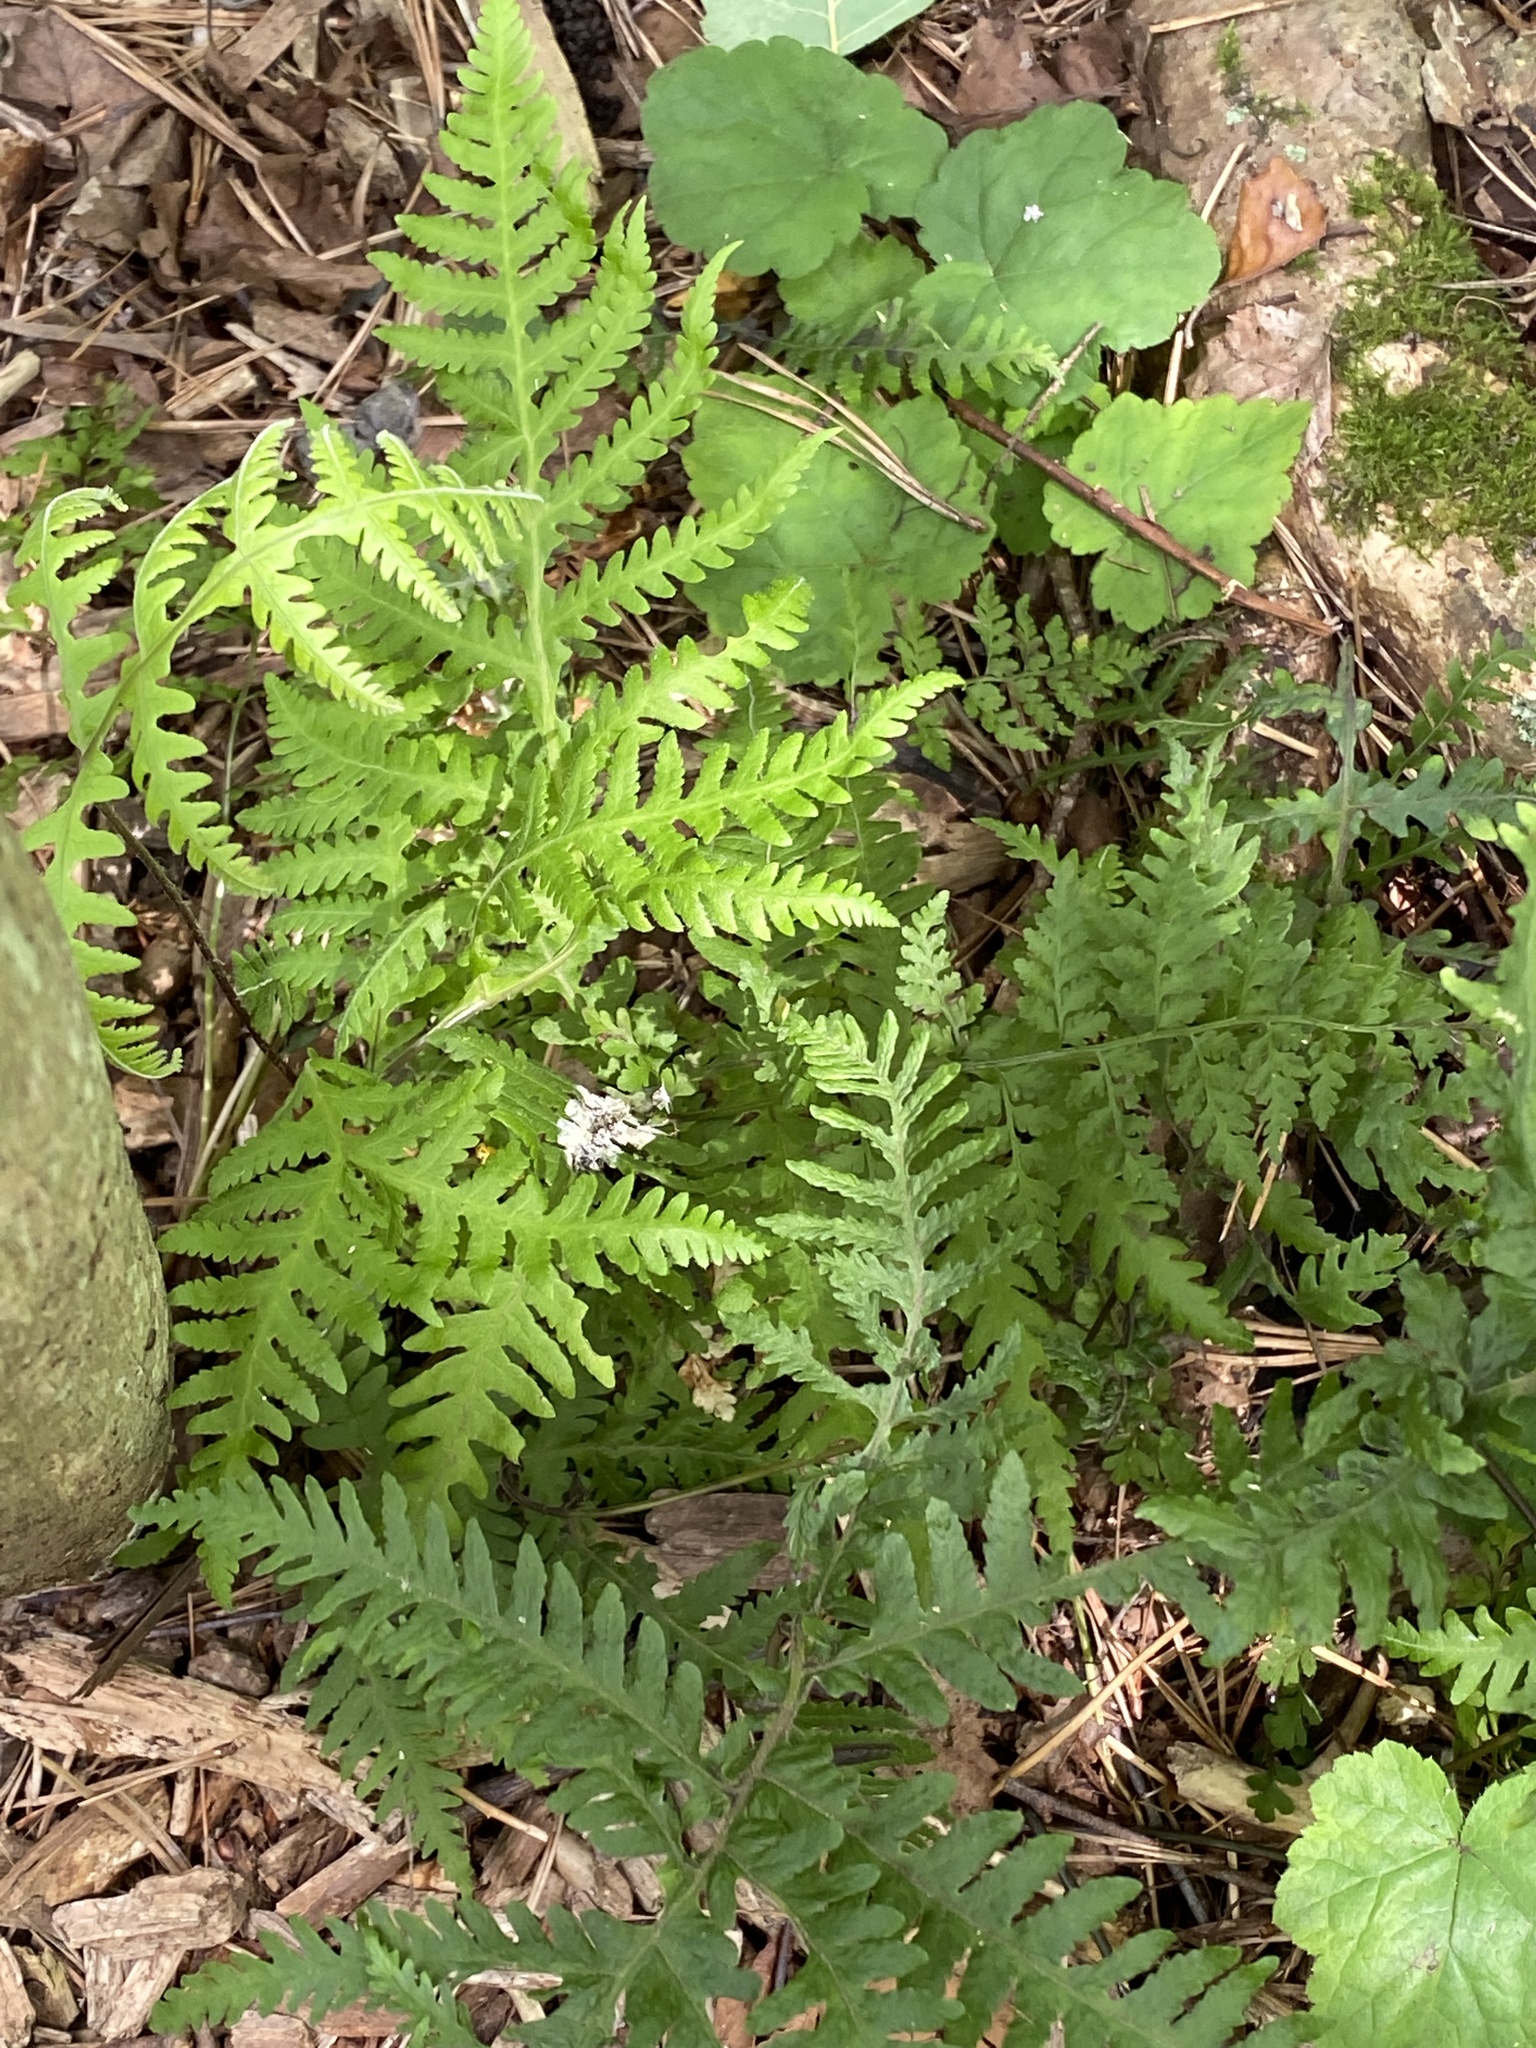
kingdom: Plantae
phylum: Tracheophyta
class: Polypodiopsida
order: Polypodiales
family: Thelypteridaceae
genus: Phegopteris
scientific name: Phegopteris hexagonoptera
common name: Broad beech fern
